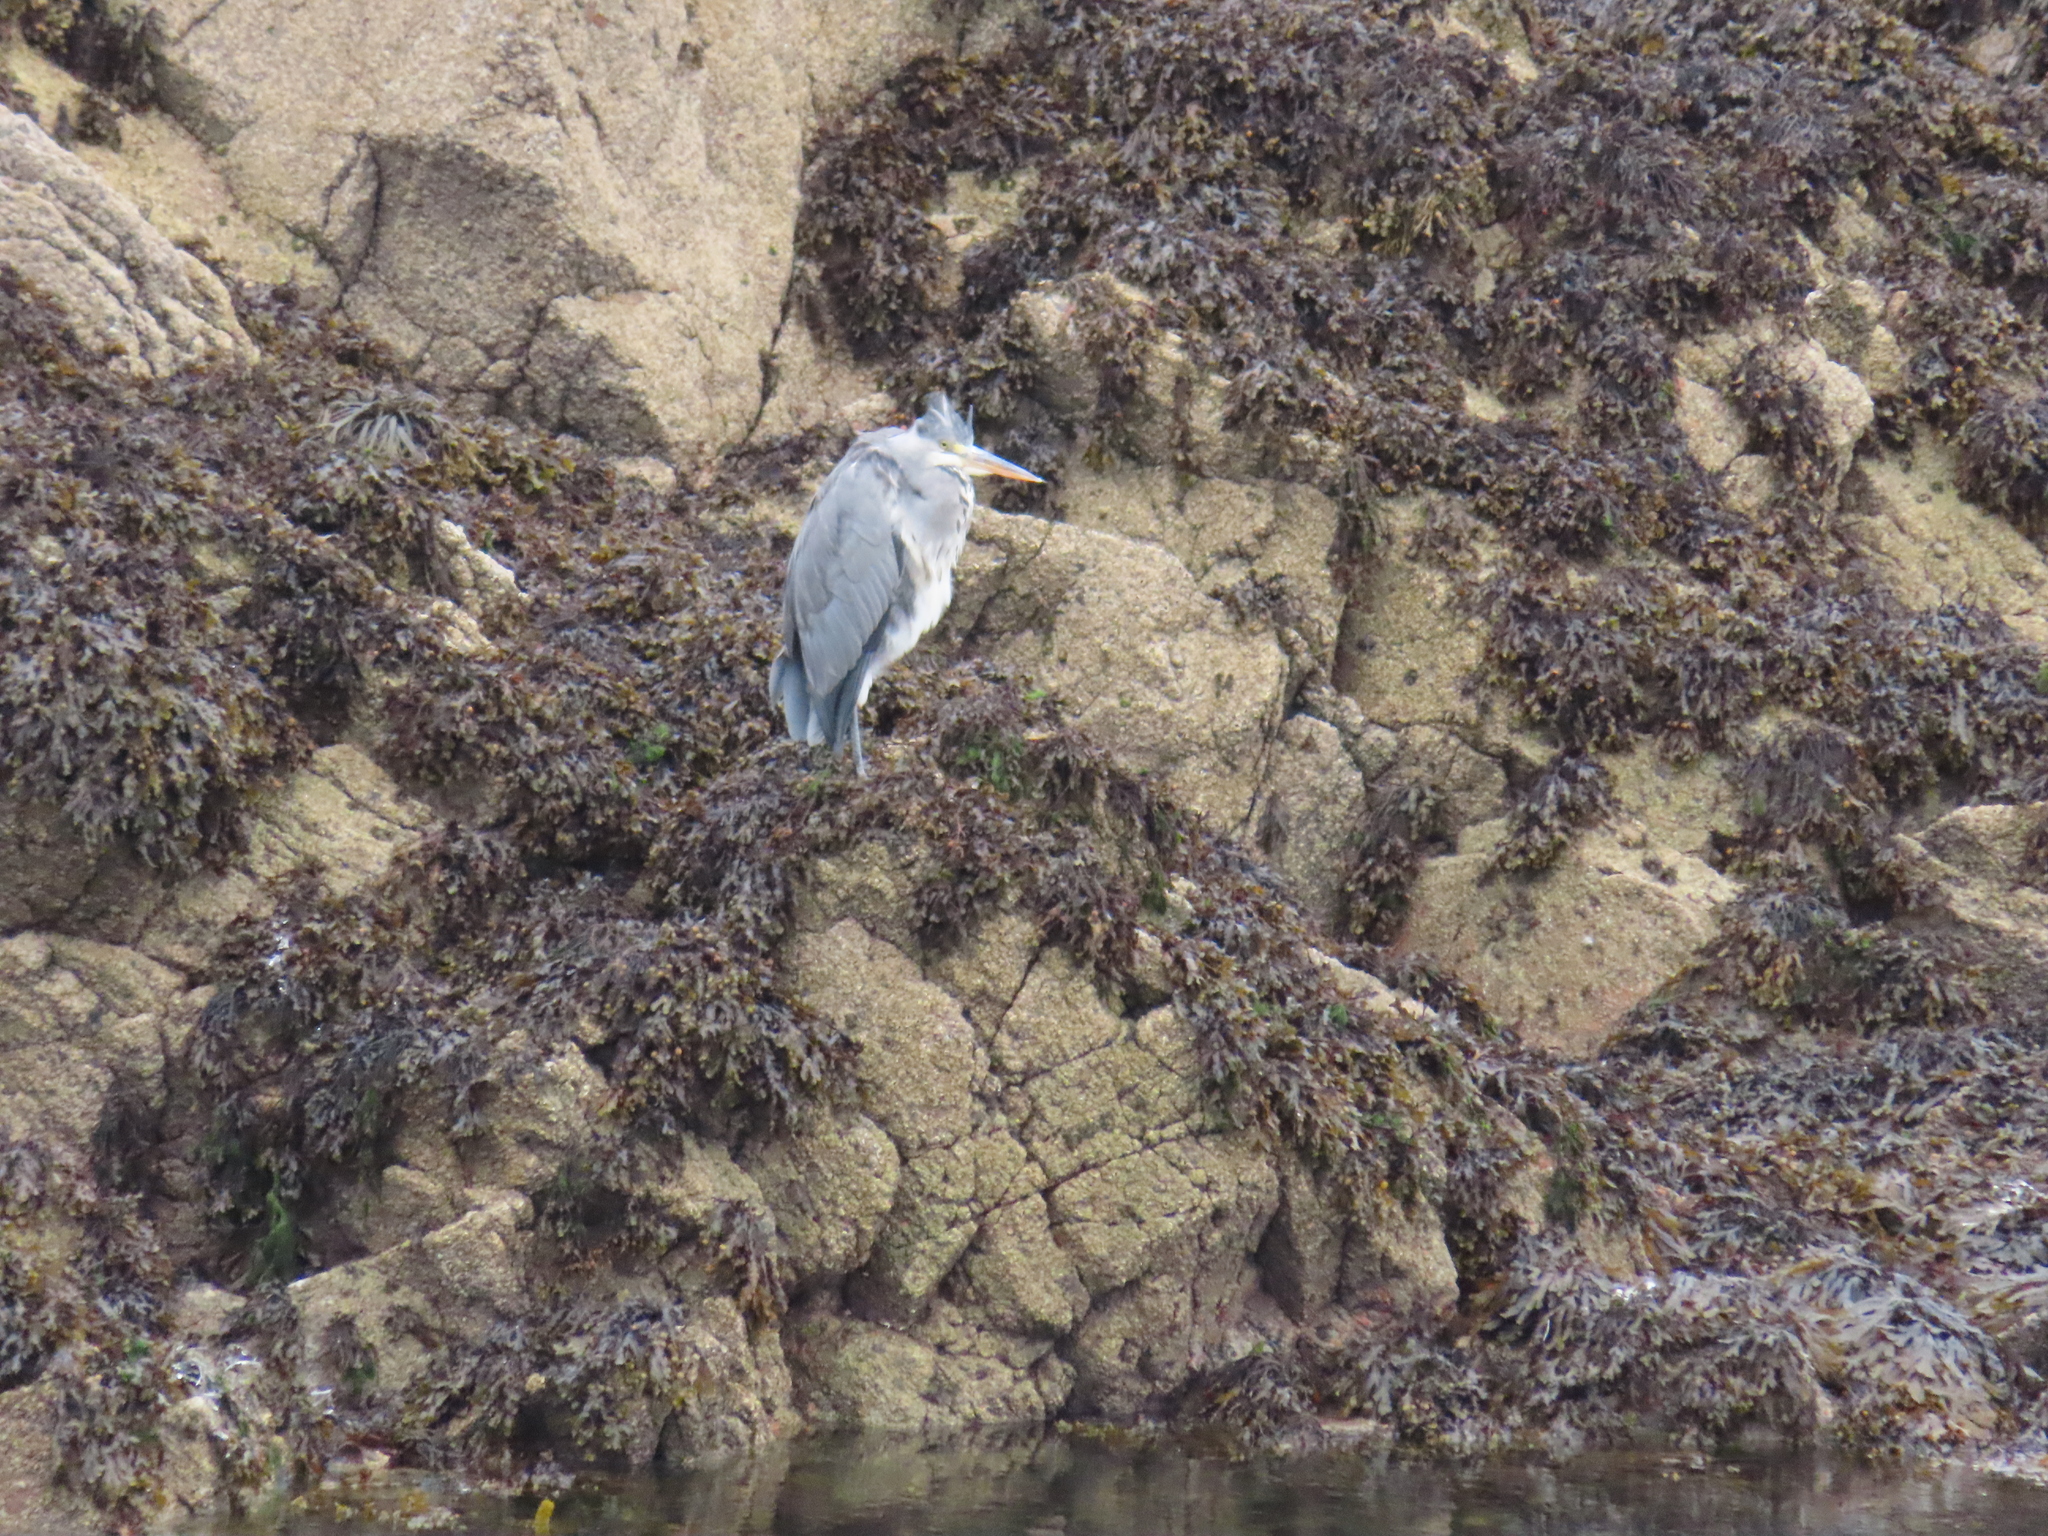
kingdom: Animalia
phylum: Chordata
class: Aves
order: Pelecaniformes
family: Ardeidae
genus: Ardea
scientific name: Ardea cinerea
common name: Grey heron
